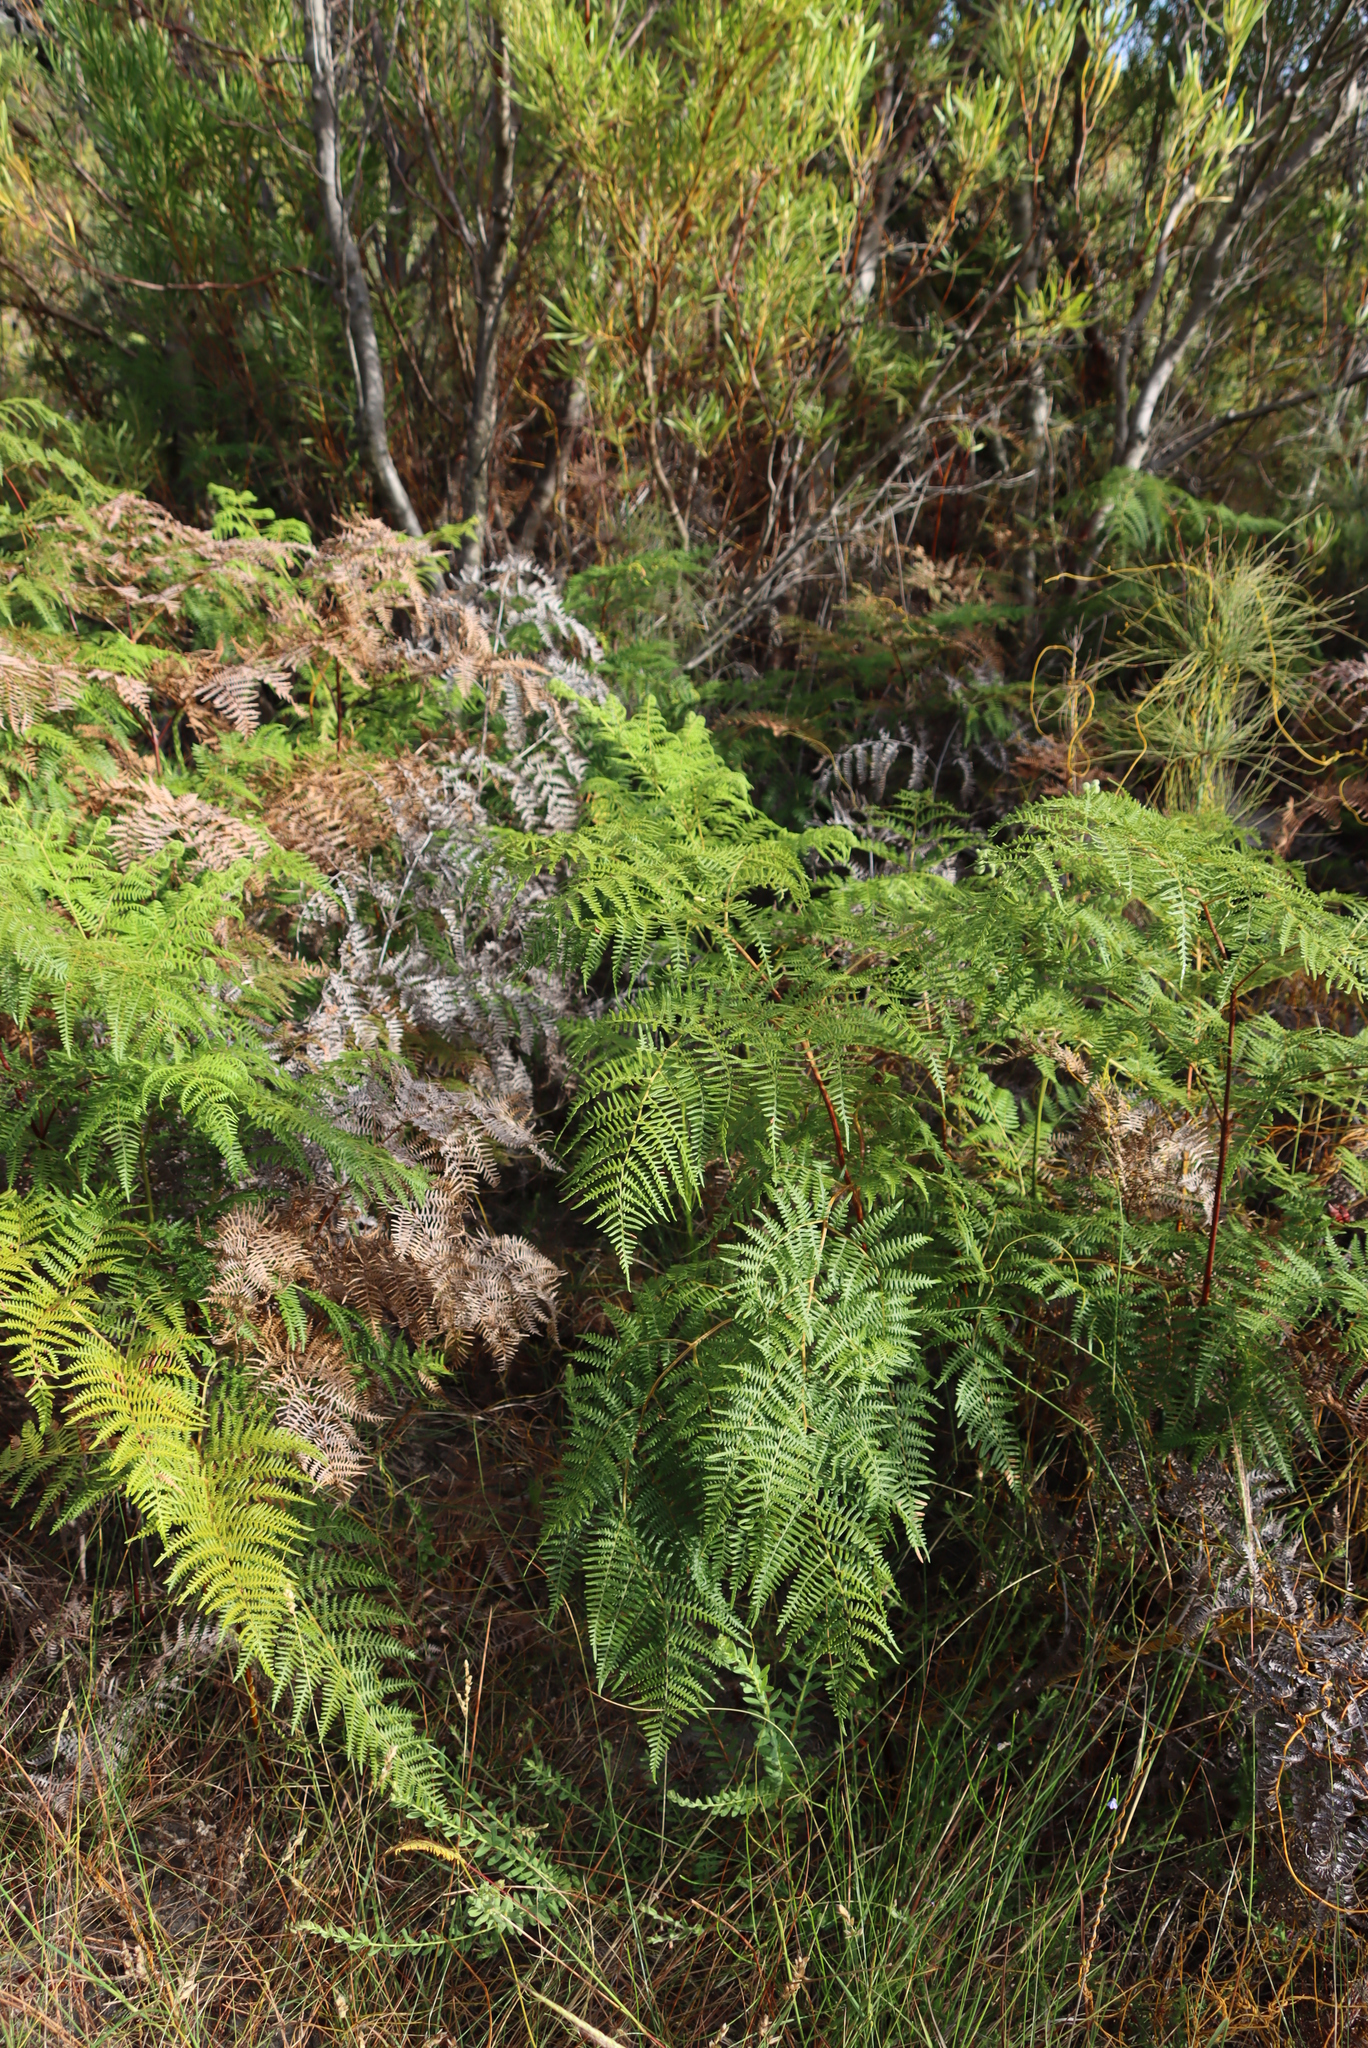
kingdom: Plantae
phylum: Tracheophyta
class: Polypodiopsida
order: Polypodiales
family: Dennstaedtiaceae
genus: Pteridium
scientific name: Pteridium aquilinum
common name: Bracken
